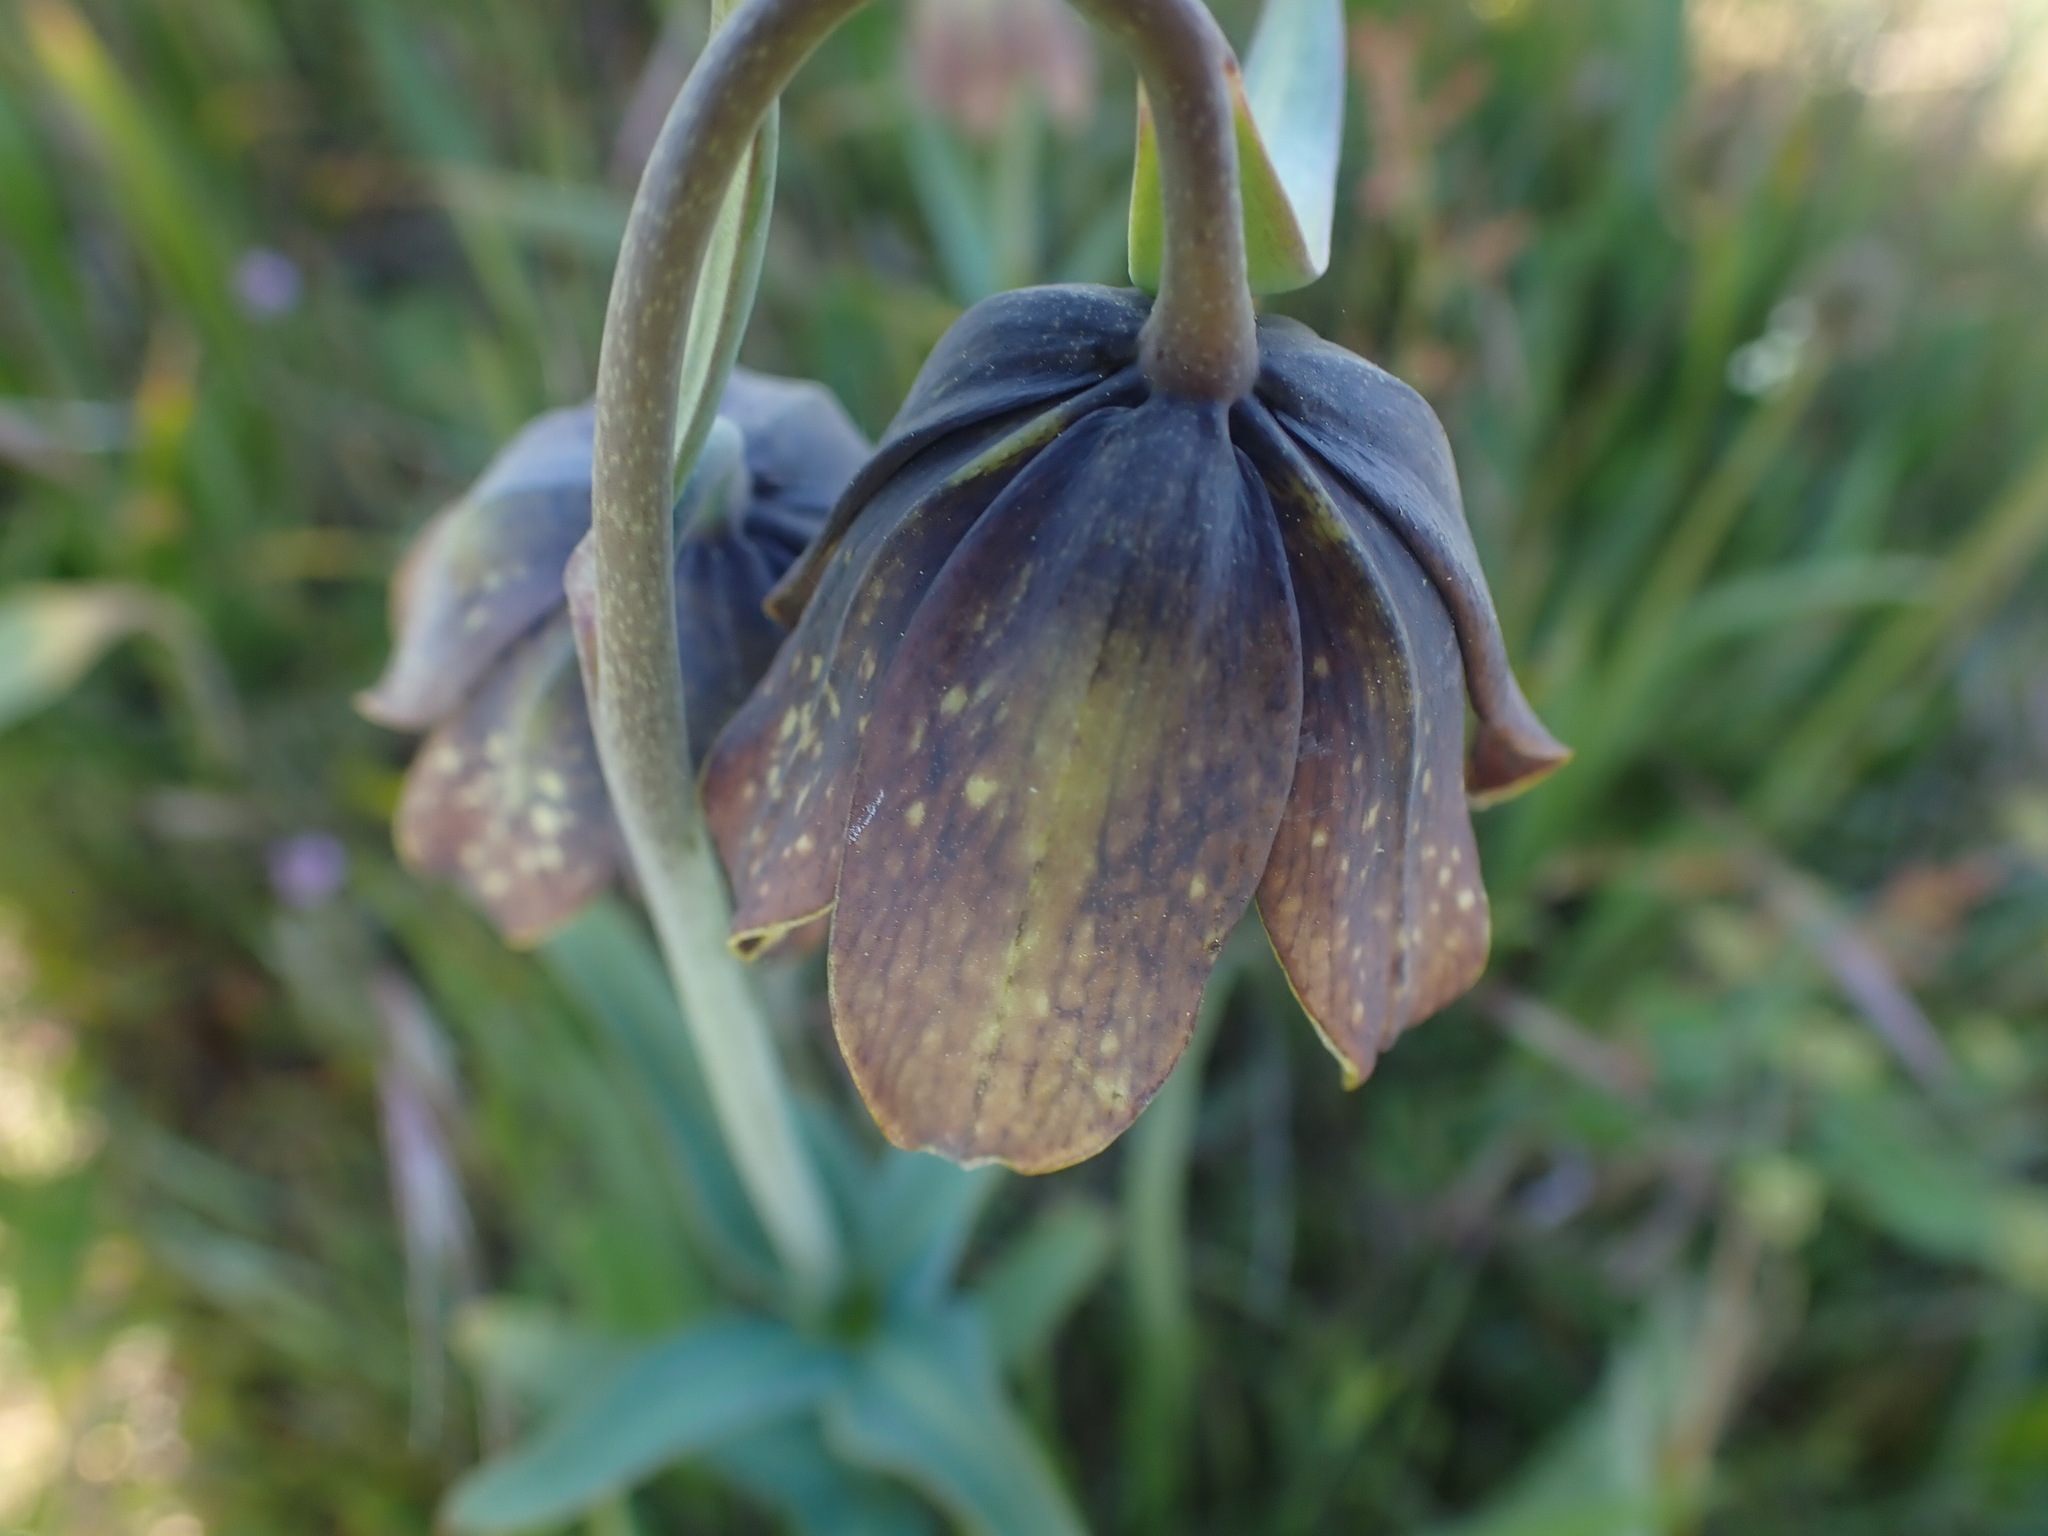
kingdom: Plantae
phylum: Tracheophyta
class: Liliopsida
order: Liliales
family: Liliaceae
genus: Fritillaria
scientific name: Fritillaria affinis
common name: Ojai fritillary
